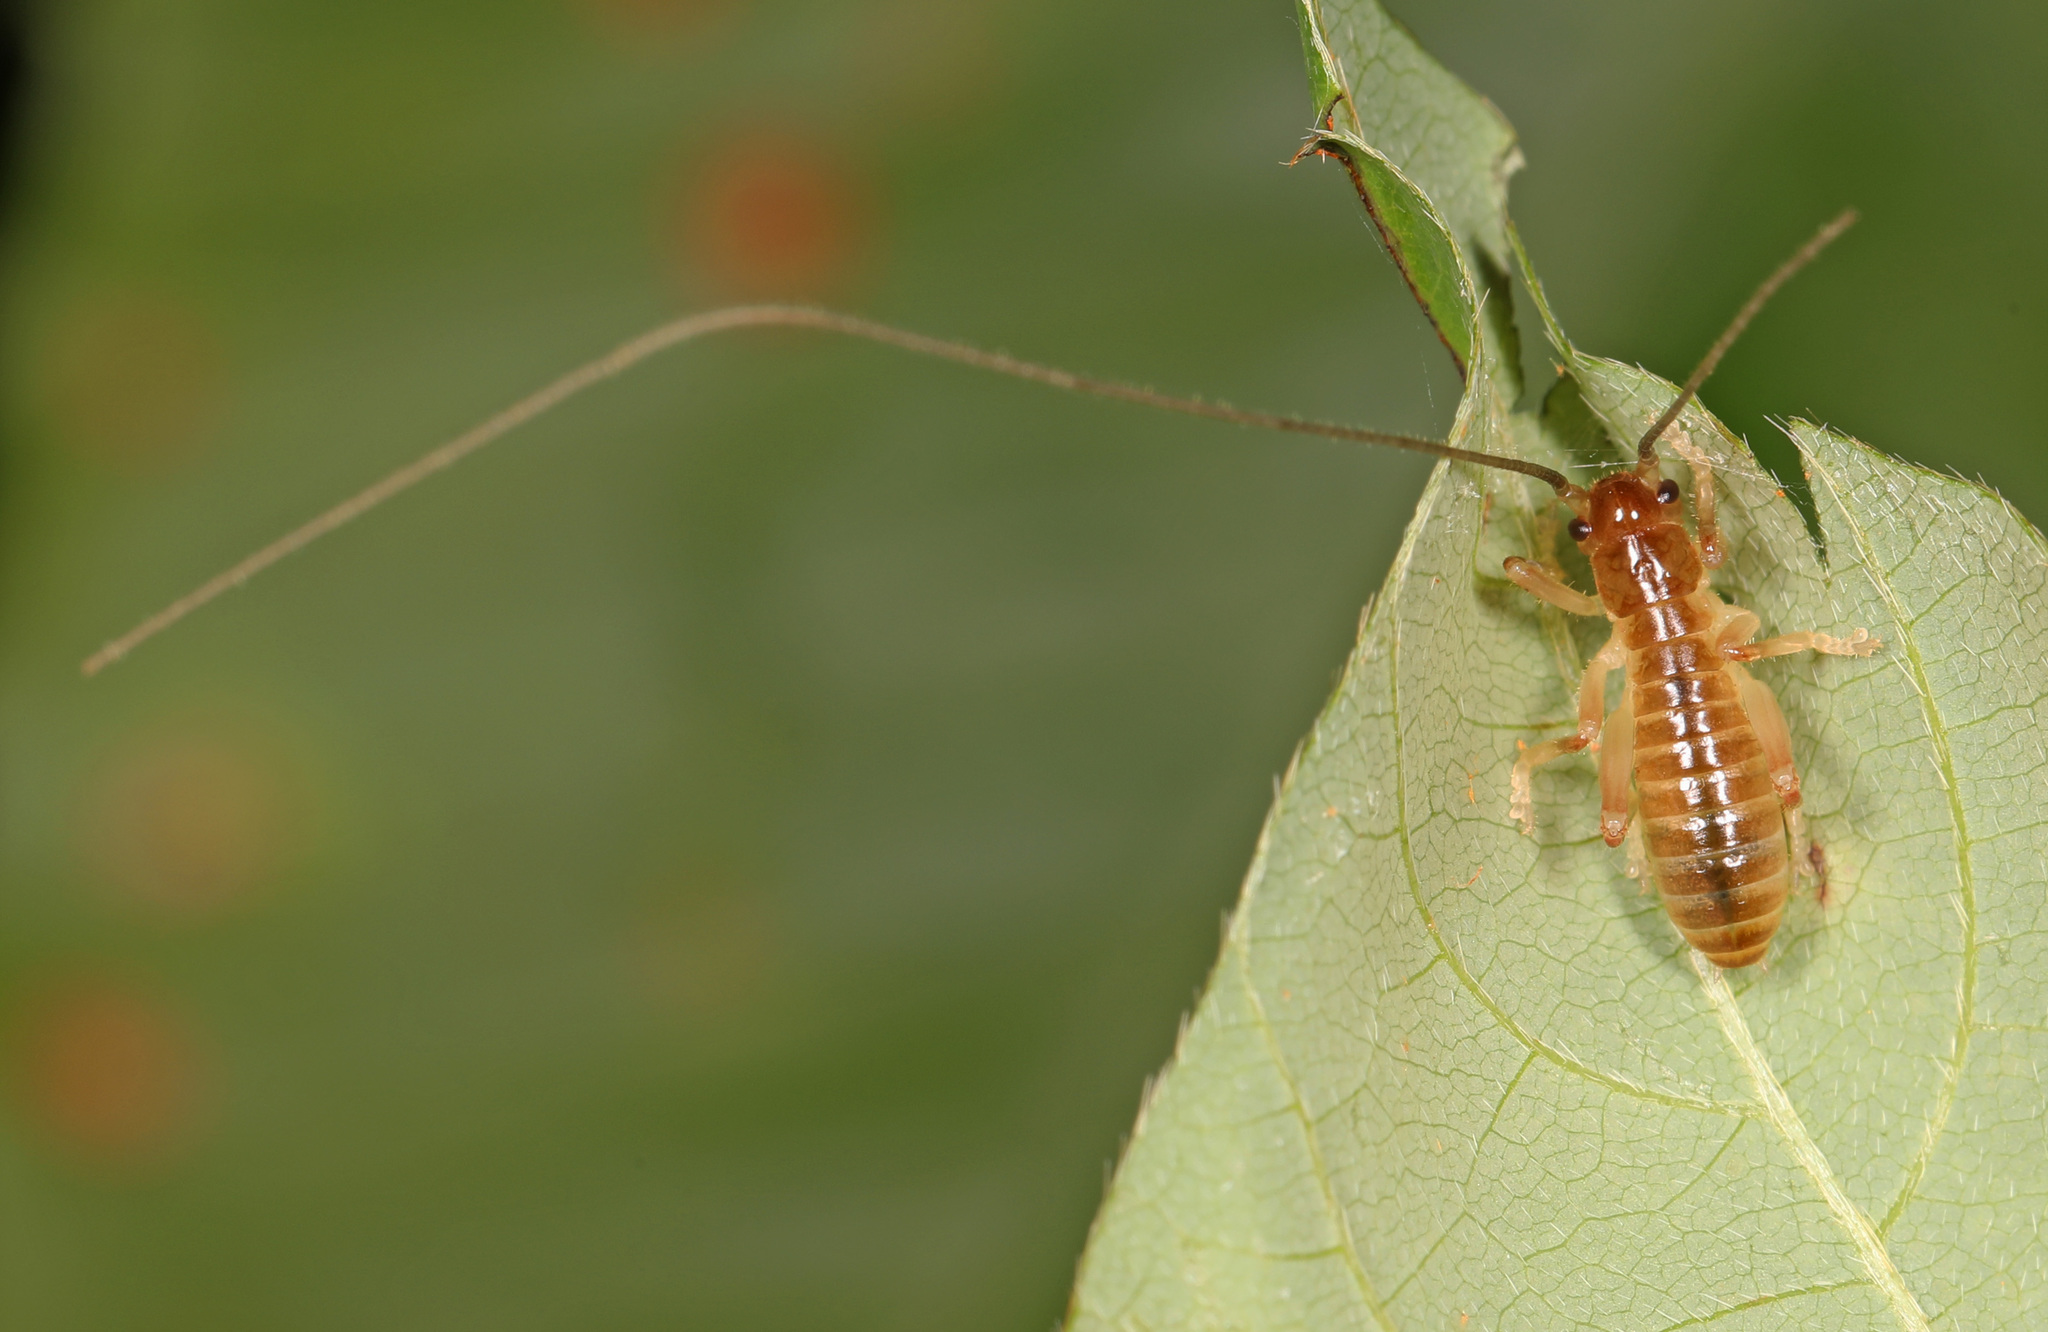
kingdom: Animalia
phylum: Arthropoda
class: Insecta
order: Orthoptera
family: Gryllacrididae
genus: Camptonotus
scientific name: Camptonotus carolinensis
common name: Carolina leaf-roller
